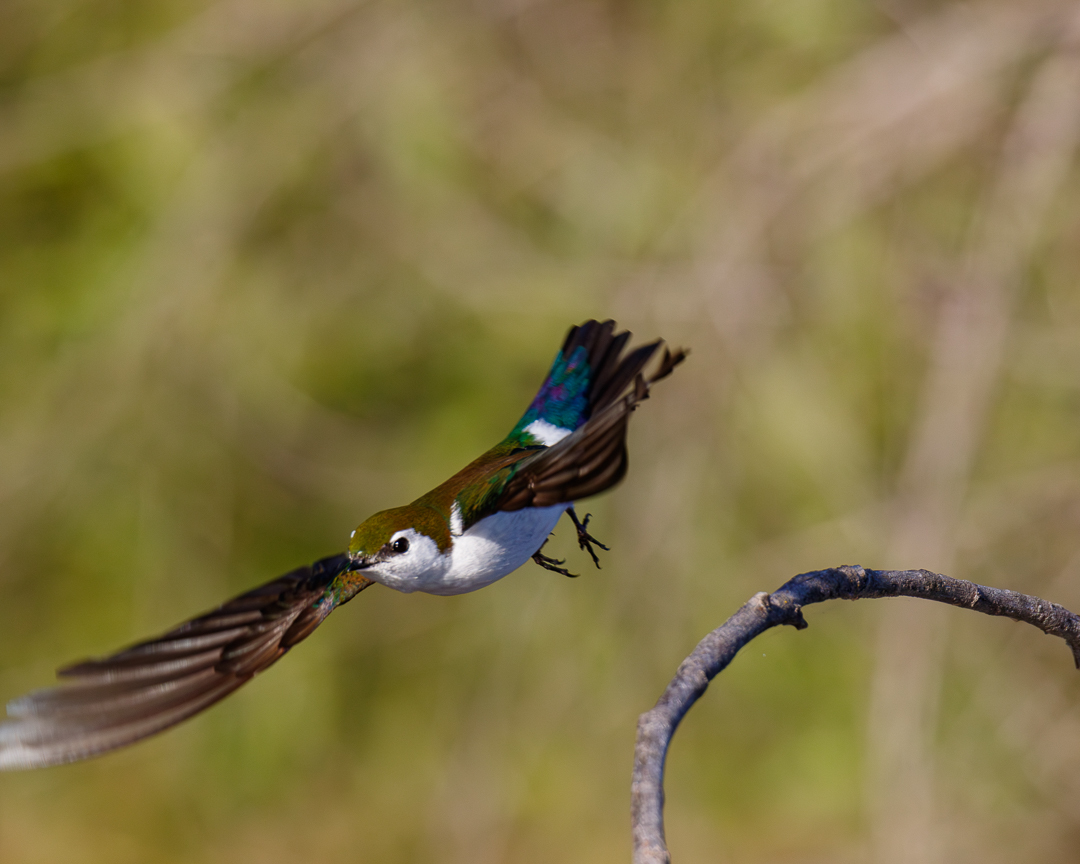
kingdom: Animalia
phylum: Chordata
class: Aves
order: Passeriformes
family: Hirundinidae
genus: Tachycineta
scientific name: Tachycineta thalassina
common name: Violet-green swallow
